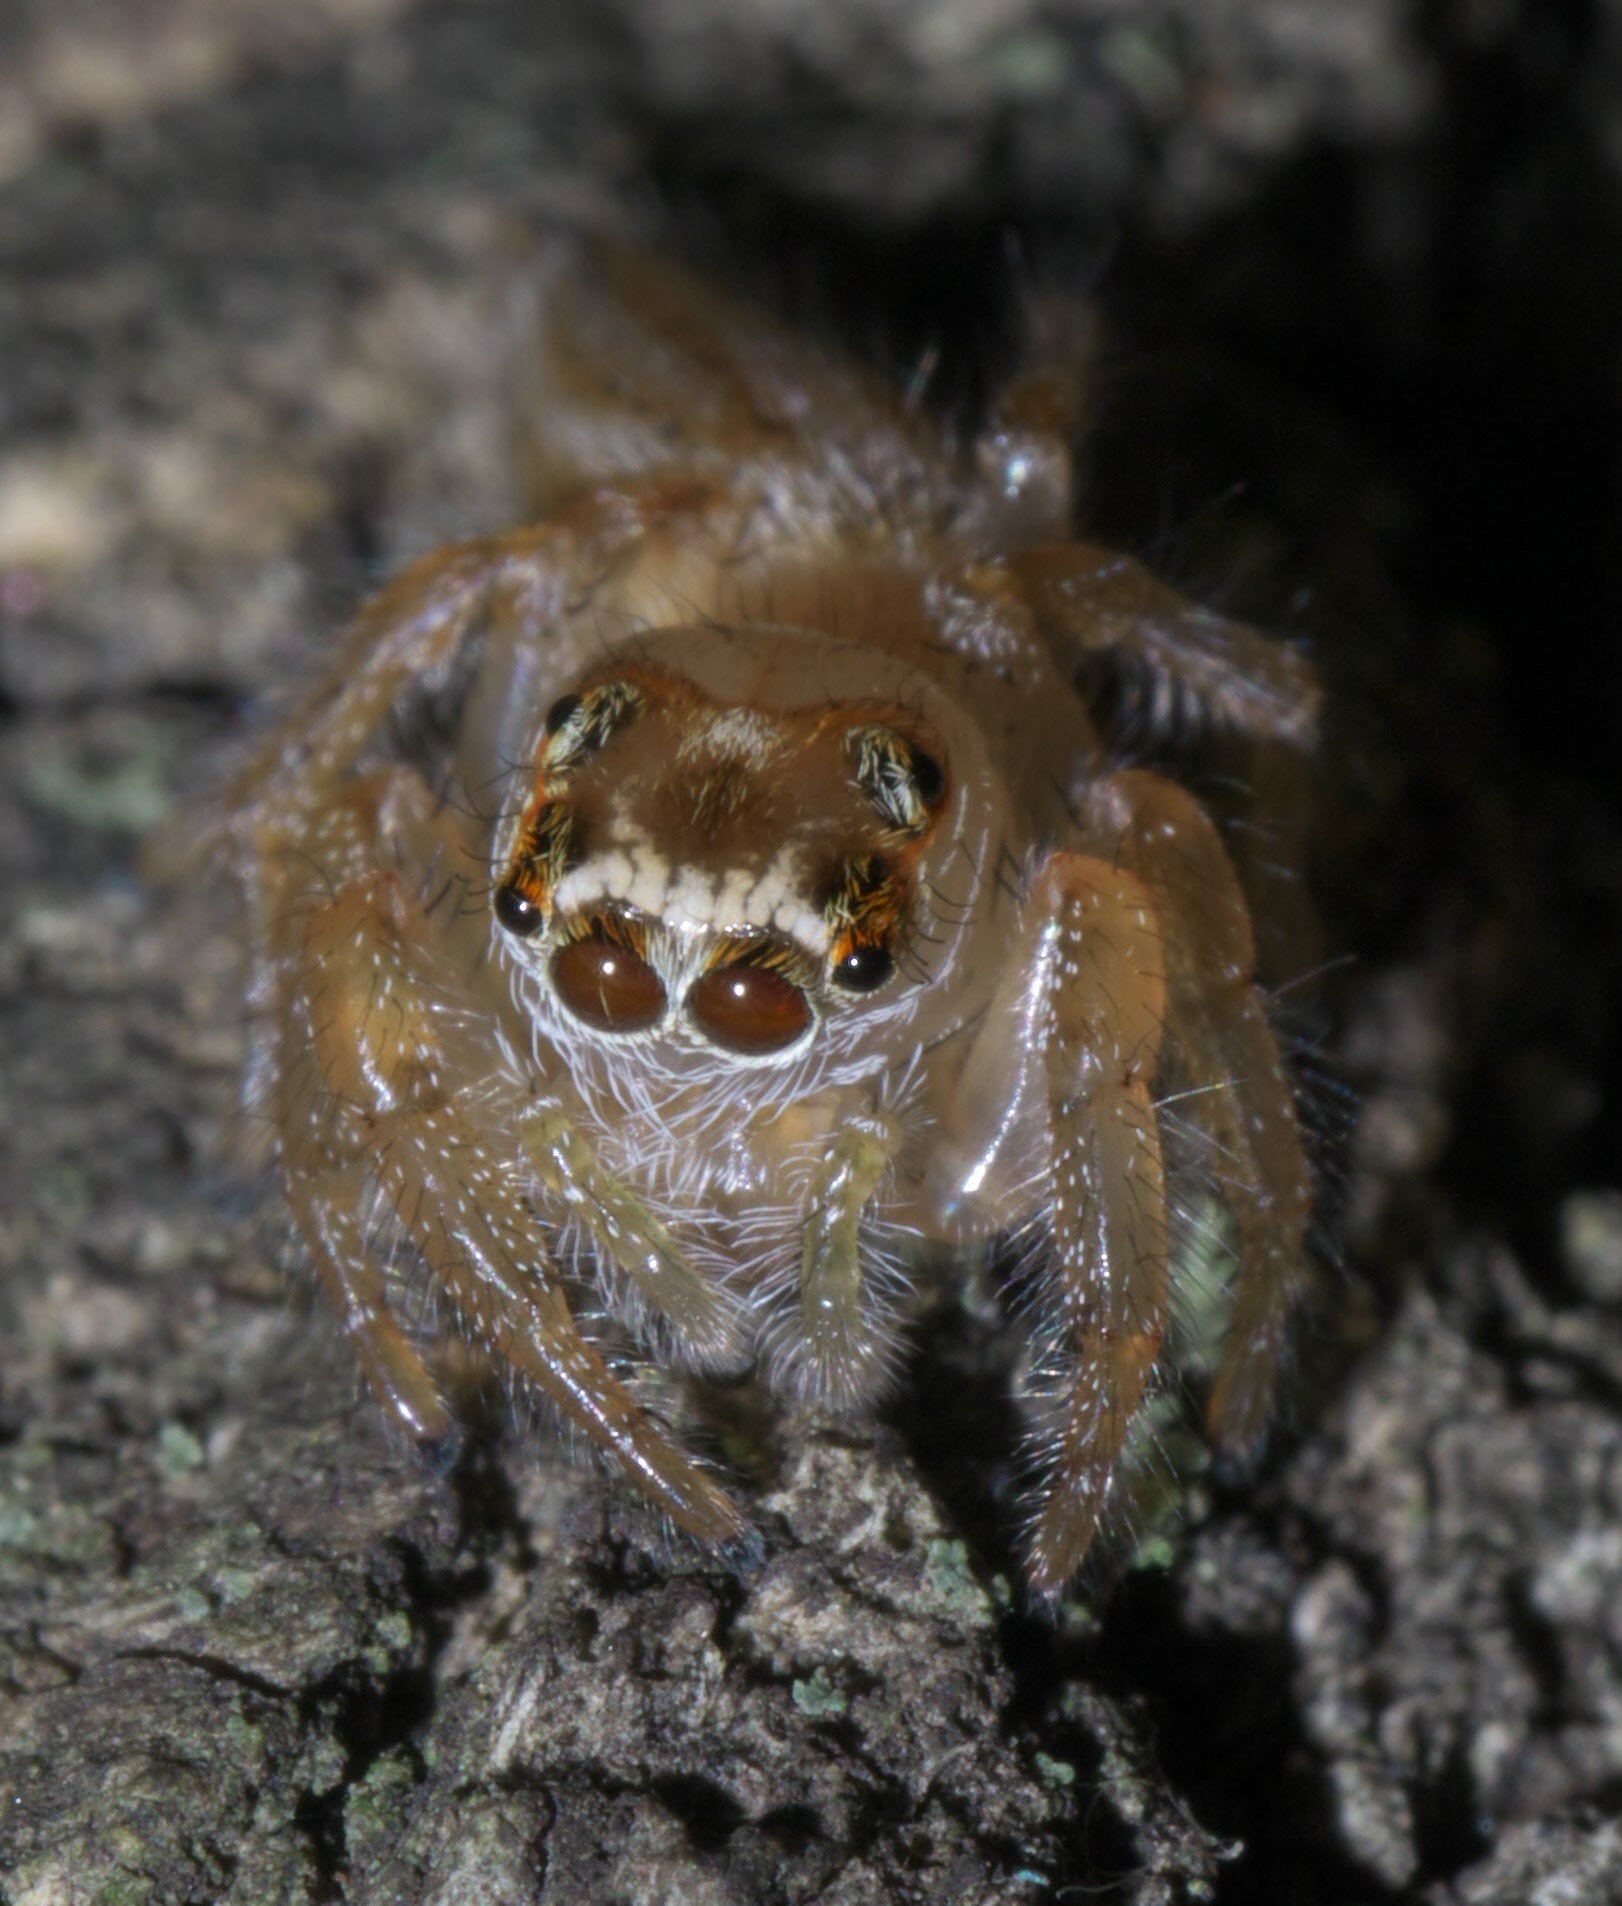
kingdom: Animalia
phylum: Arthropoda
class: Arachnida
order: Araneae
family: Salticidae
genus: Colonus
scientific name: Colonus sylvanus
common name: Jumping spiders
